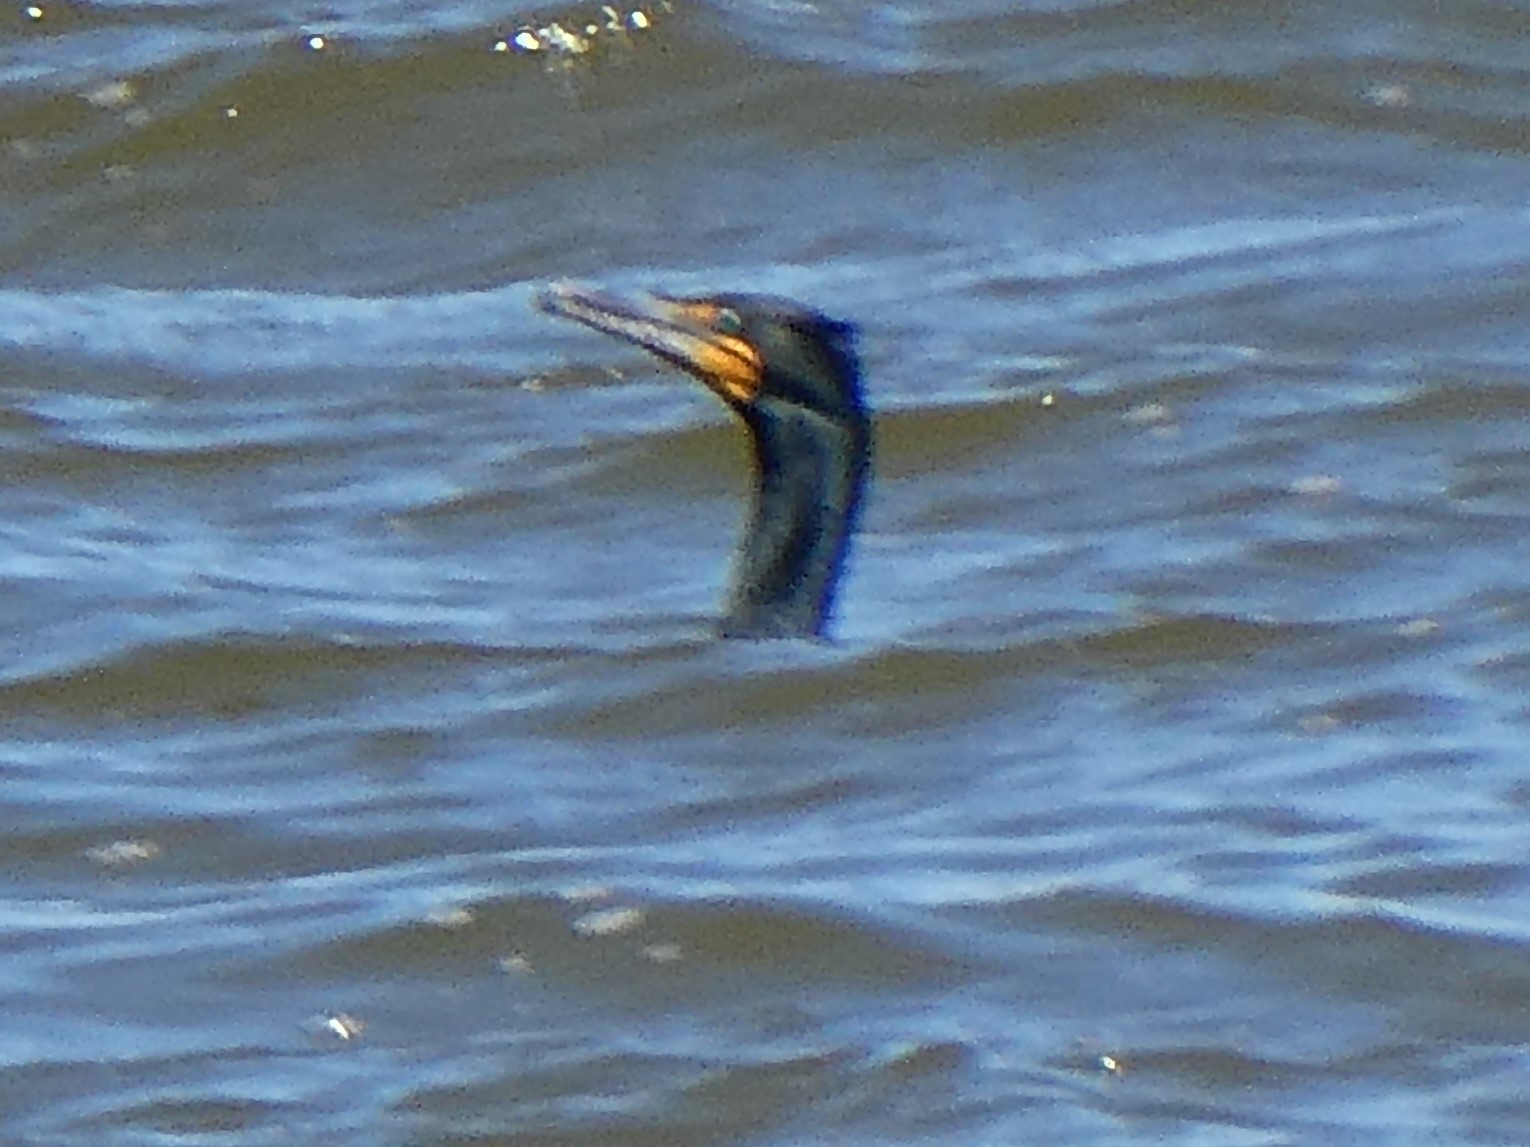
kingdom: Animalia
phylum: Chordata
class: Aves
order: Suliformes
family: Phalacrocoracidae
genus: Phalacrocorax
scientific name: Phalacrocorax auritus
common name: Double-crested cormorant
